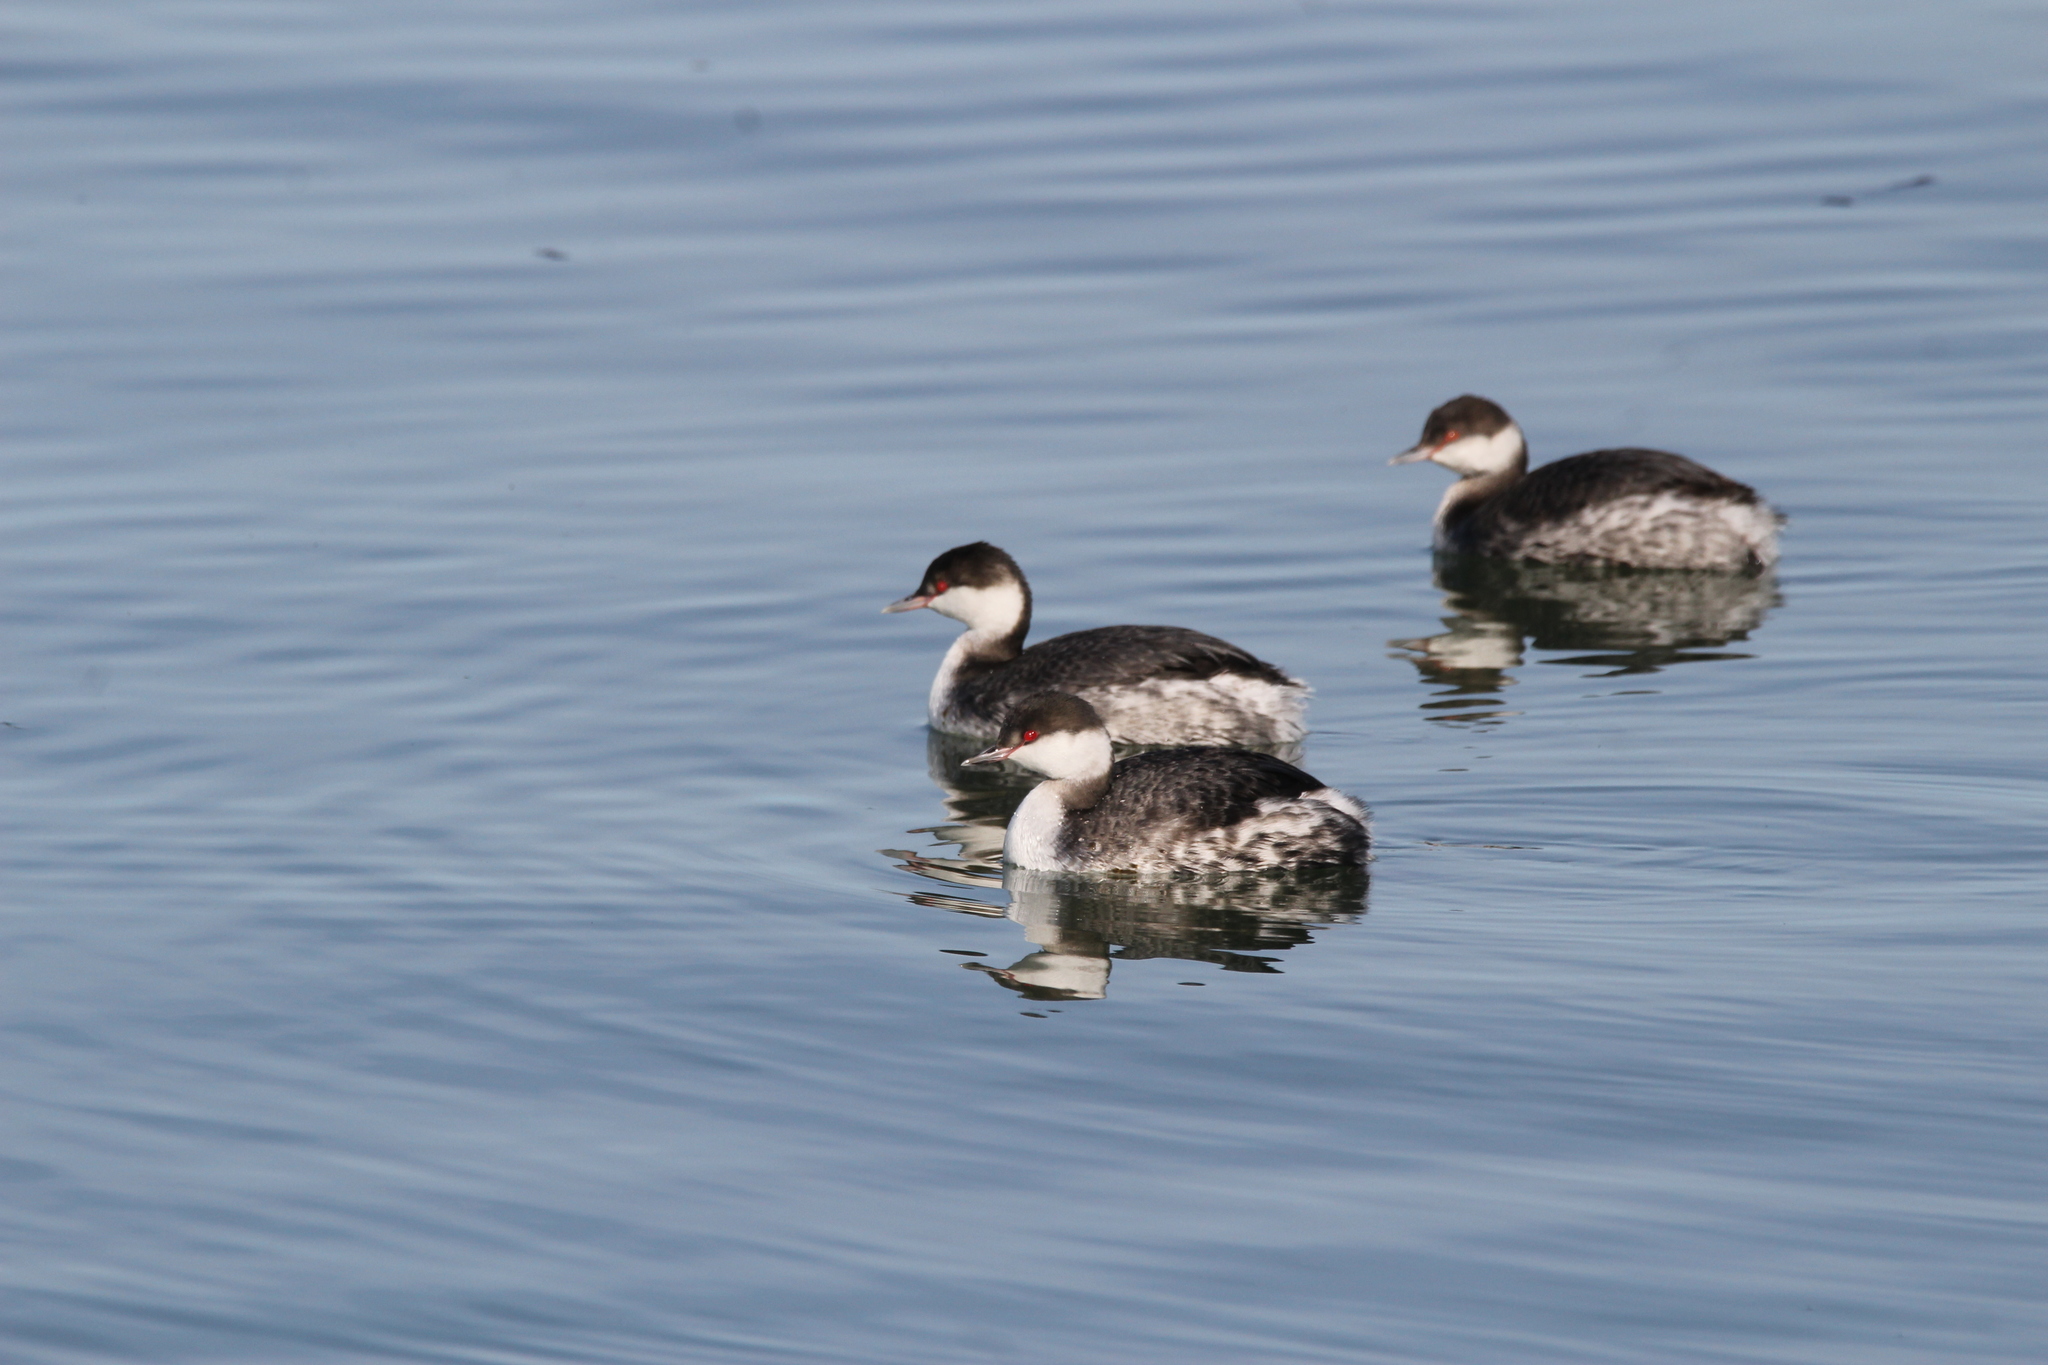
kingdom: Animalia
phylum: Chordata
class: Aves
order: Podicipediformes
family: Podicipedidae
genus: Podiceps
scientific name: Podiceps auritus
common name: Horned grebe
